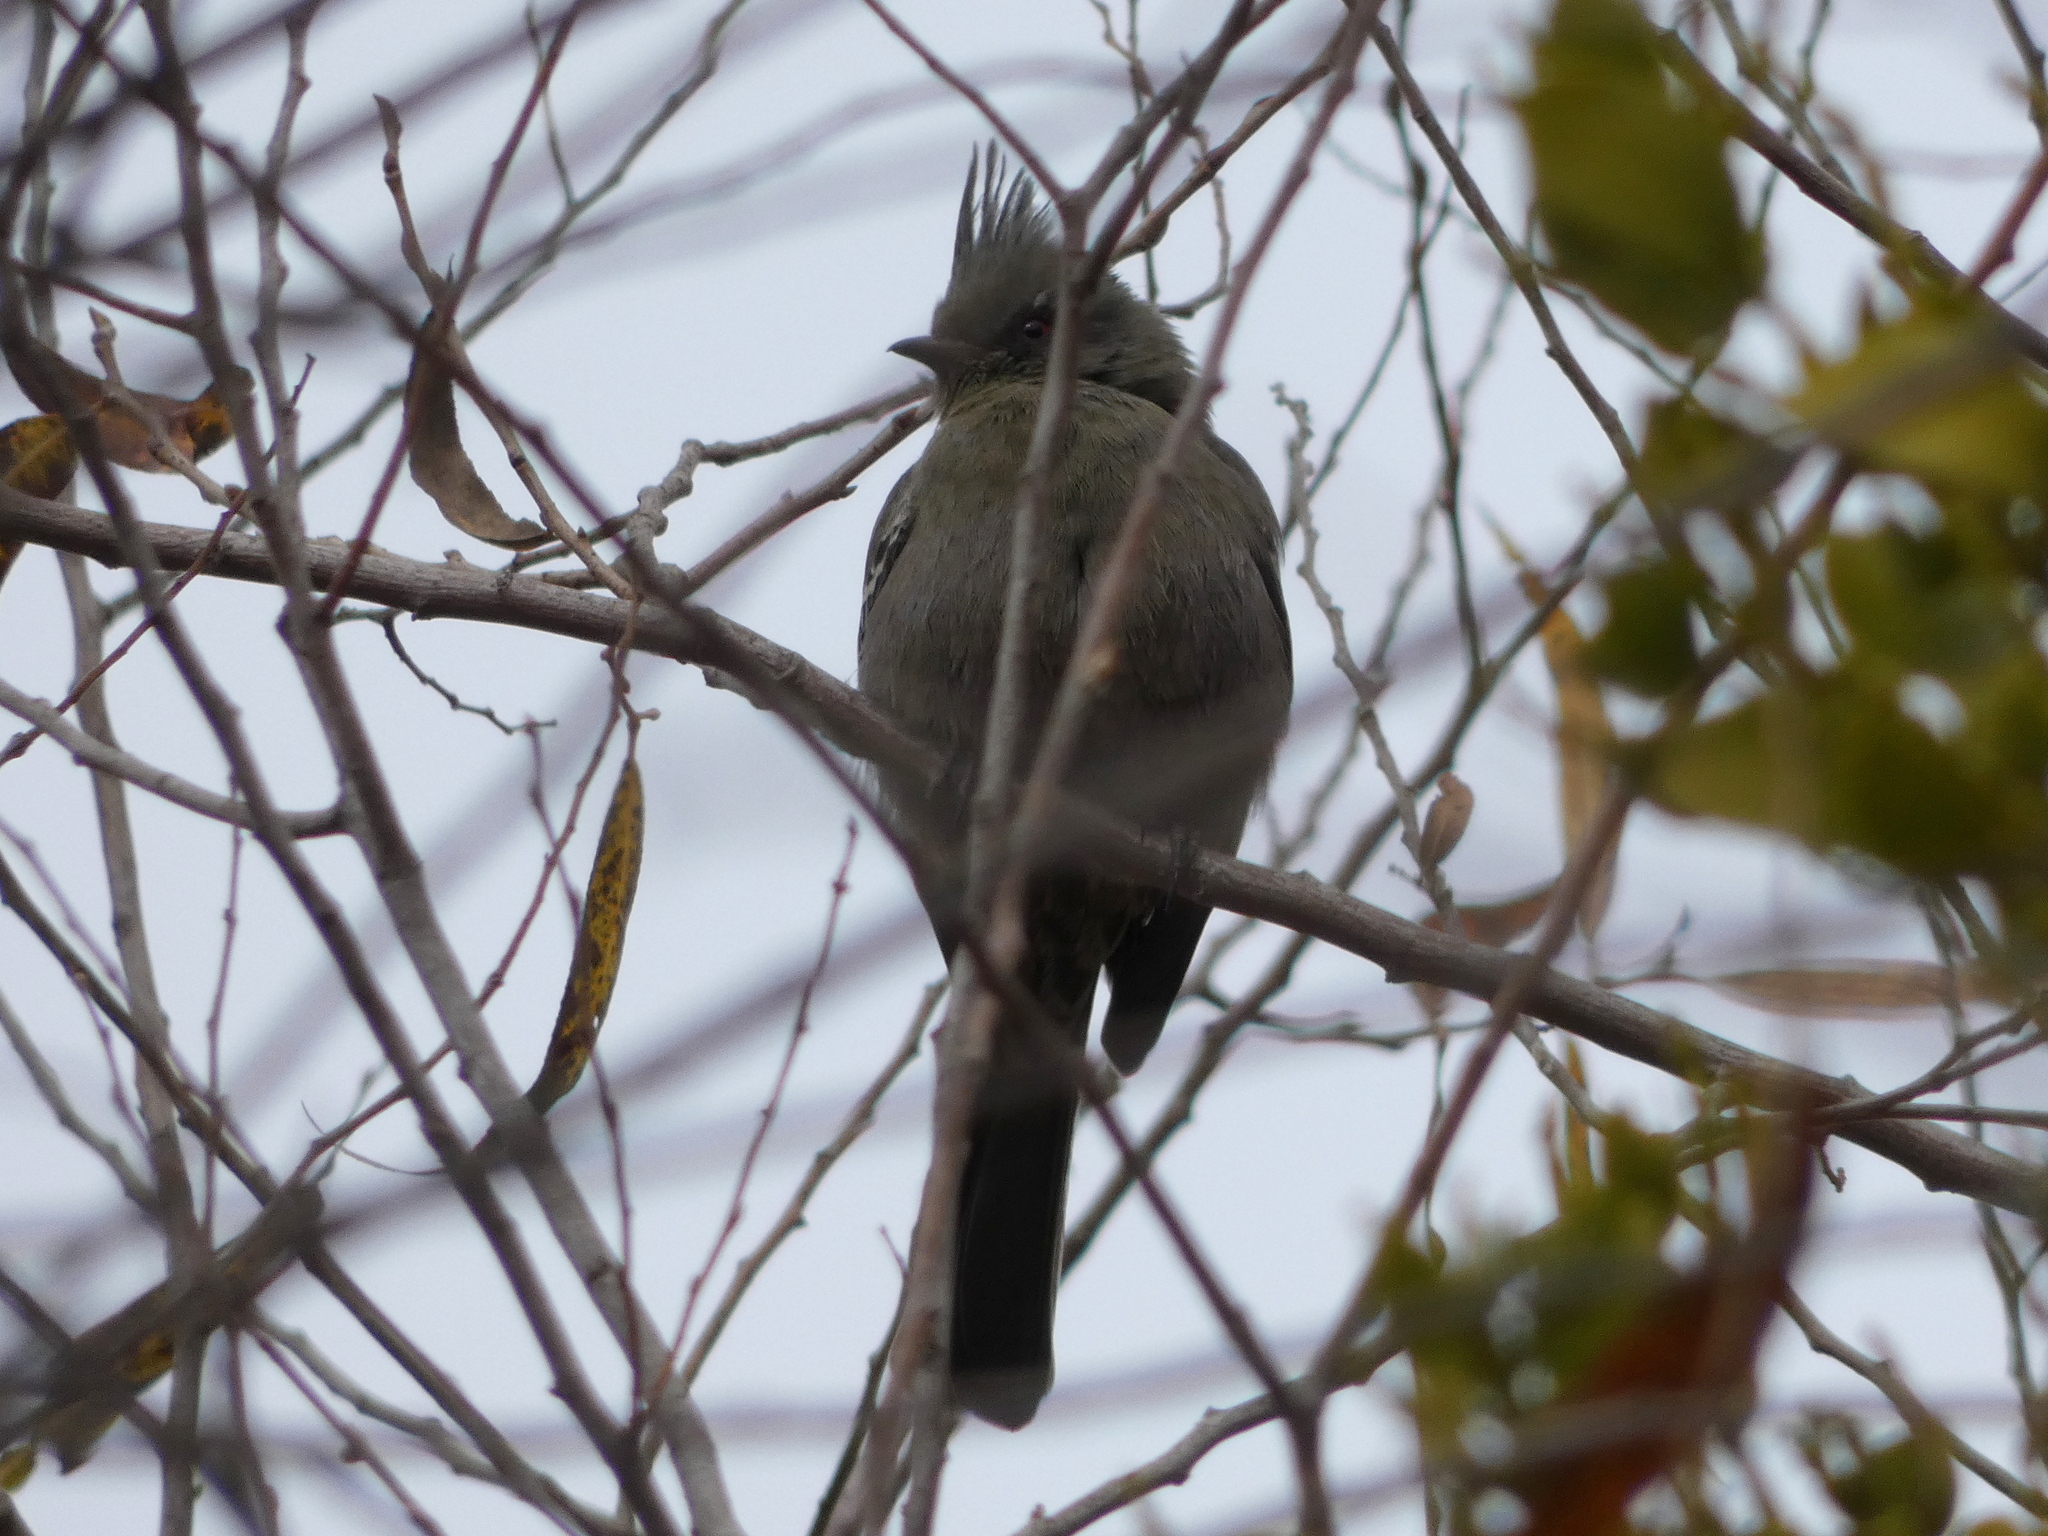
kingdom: Animalia
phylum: Chordata
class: Aves
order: Passeriformes
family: Ptilogonatidae
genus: Phainopepla
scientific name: Phainopepla nitens
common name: Phainopepla
